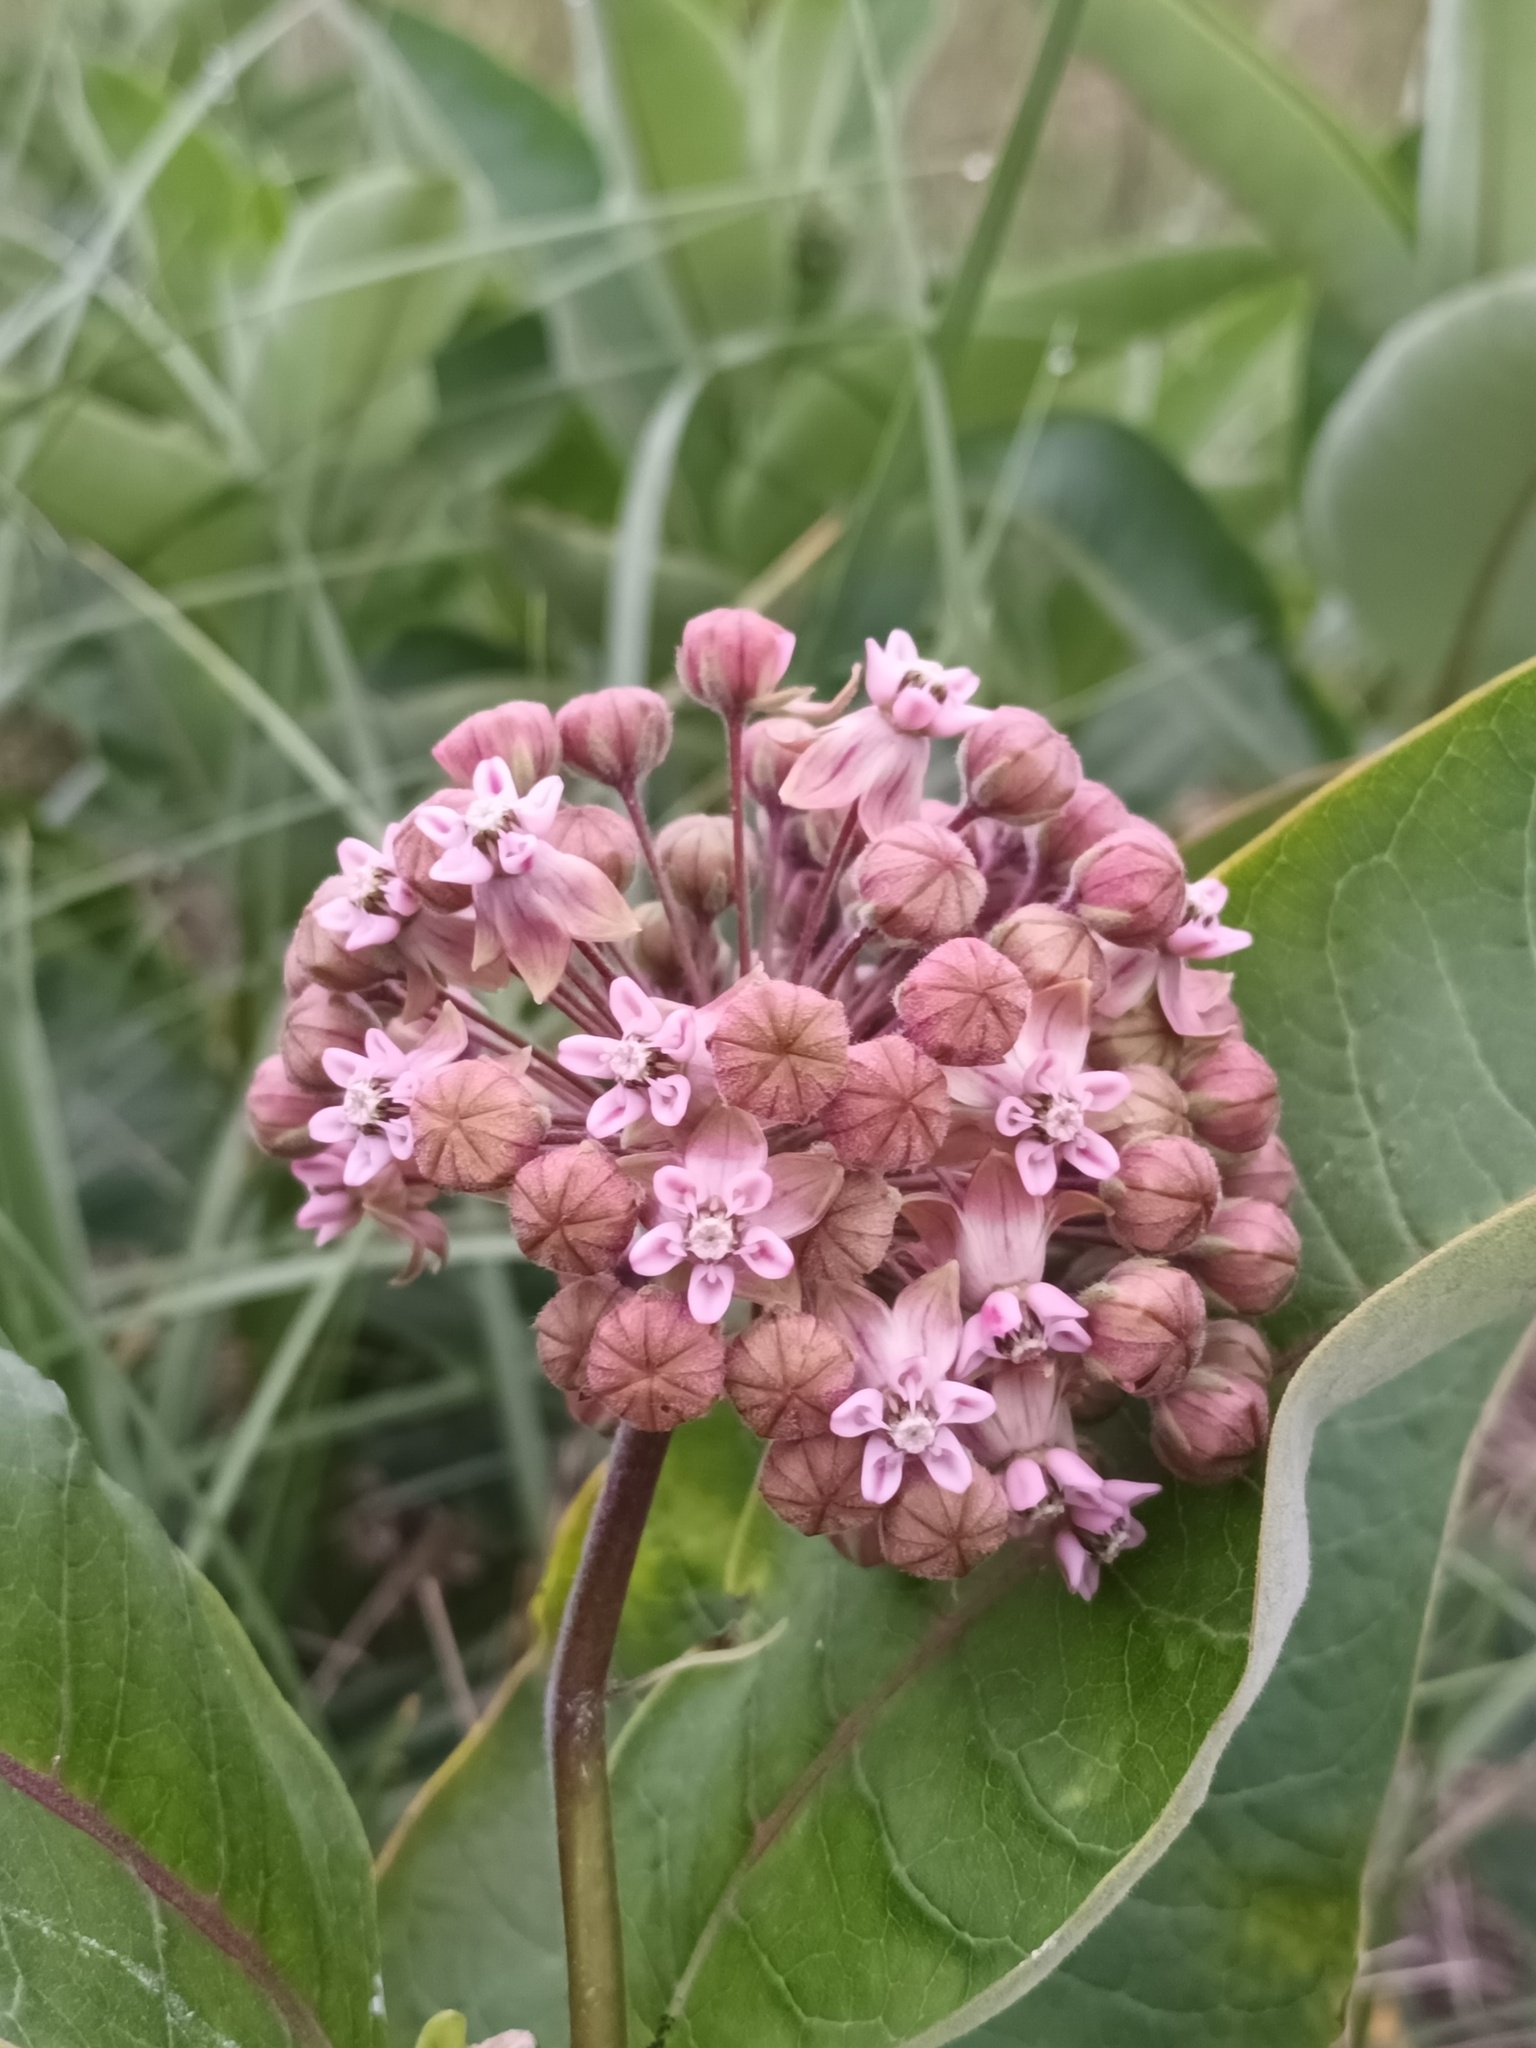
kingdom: Plantae
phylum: Tracheophyta
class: Magnoliopsida
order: Gentianales
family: Apocynaceae
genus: Asclepias
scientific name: Asclepias syriaca
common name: Common milkweed
